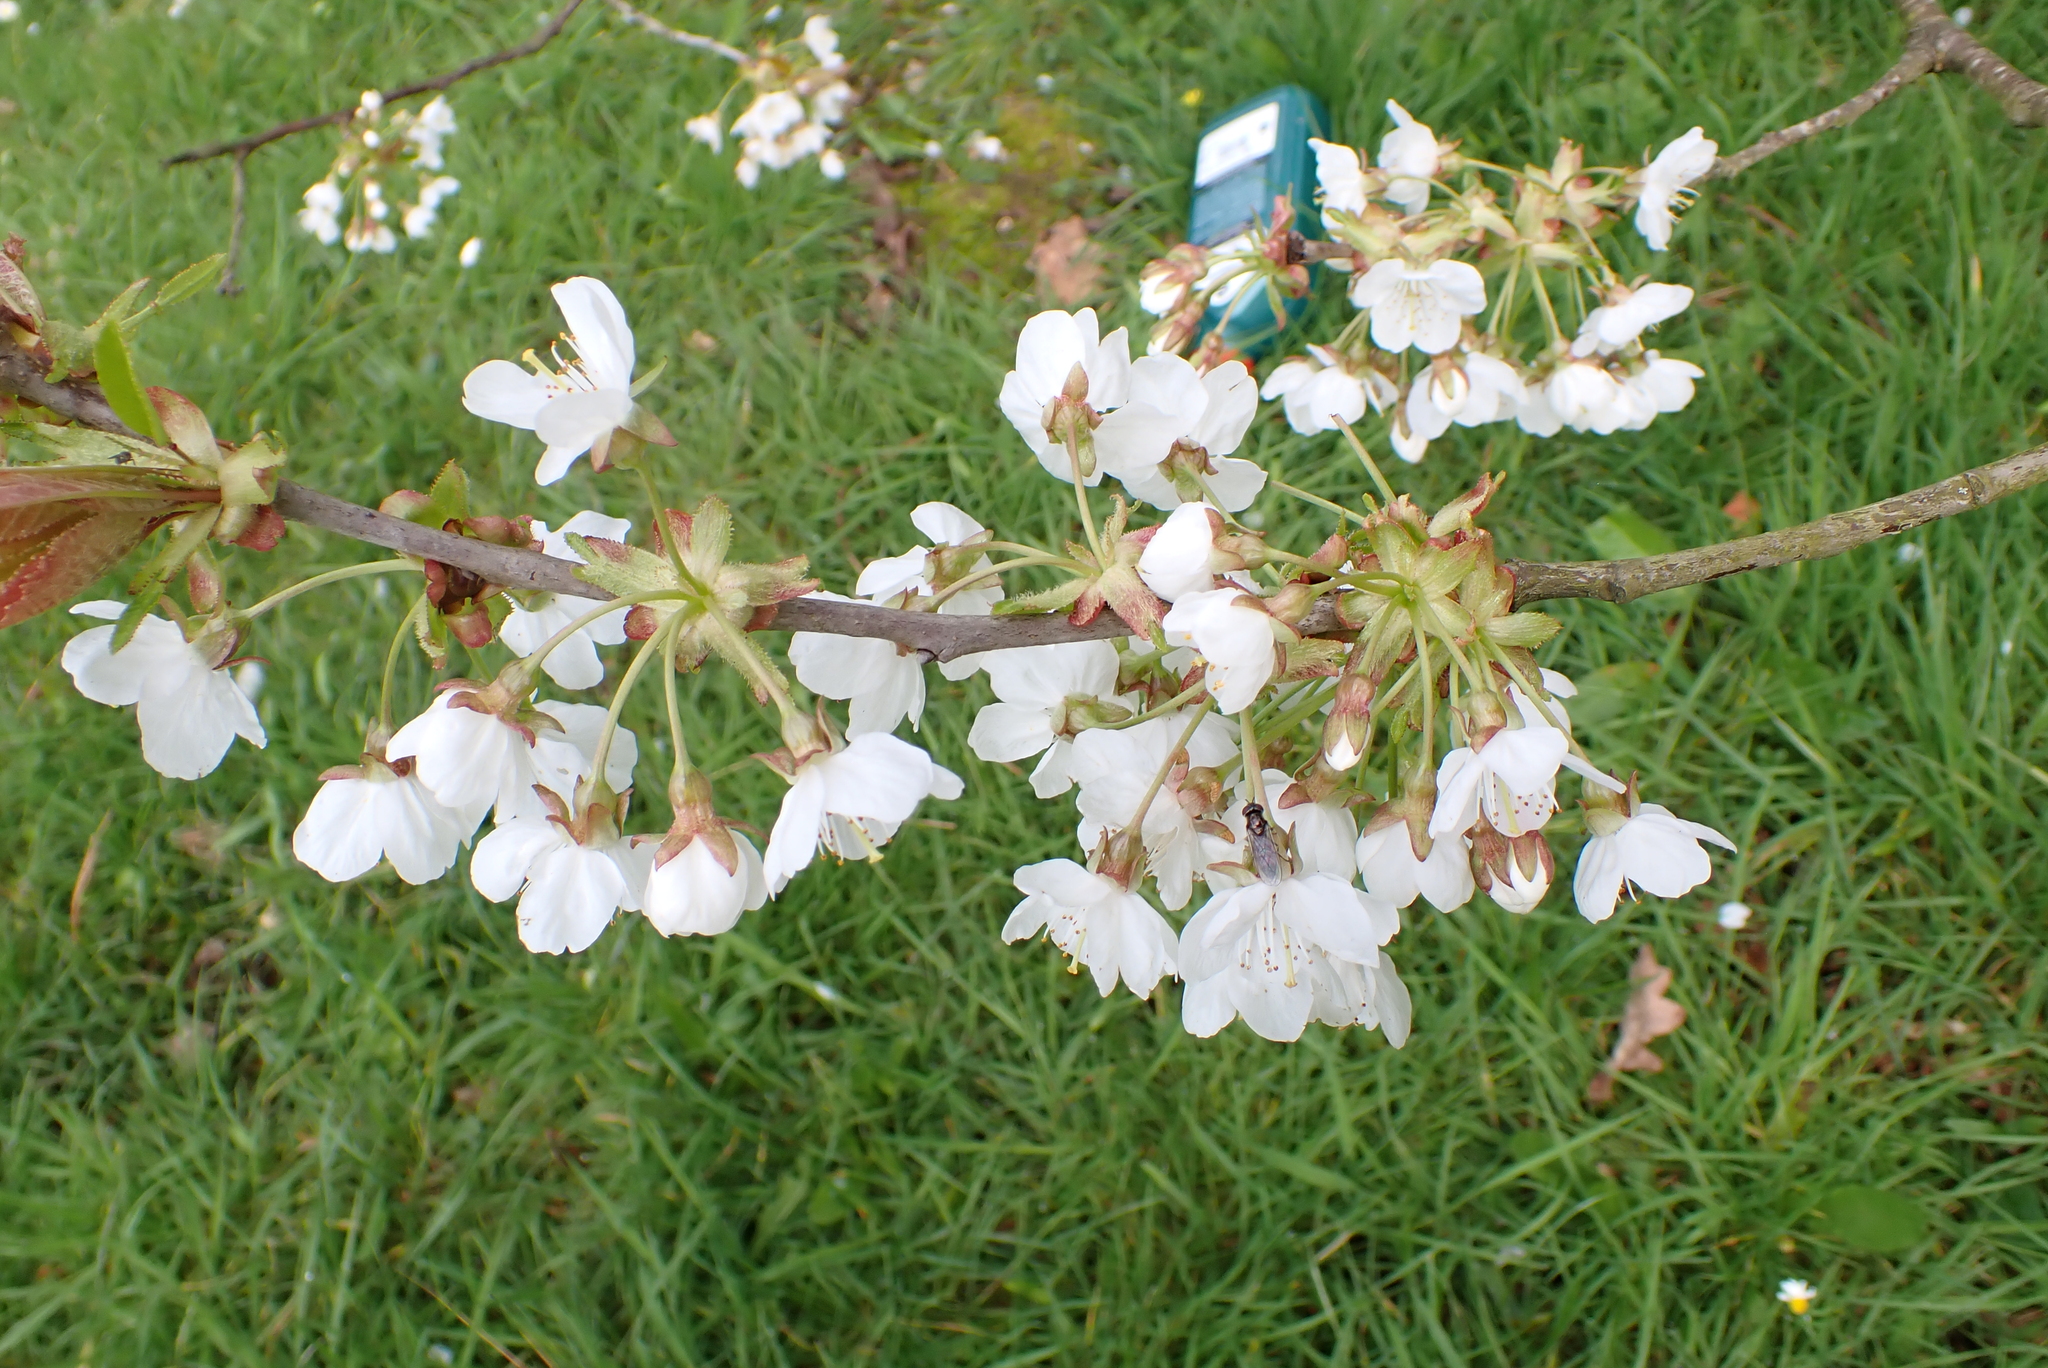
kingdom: Plantae
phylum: Tracheophyta
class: Magnoliopsida
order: Rosales
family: Rosaceae
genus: Prunus
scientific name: Prunus avium
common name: Sweet cherry
